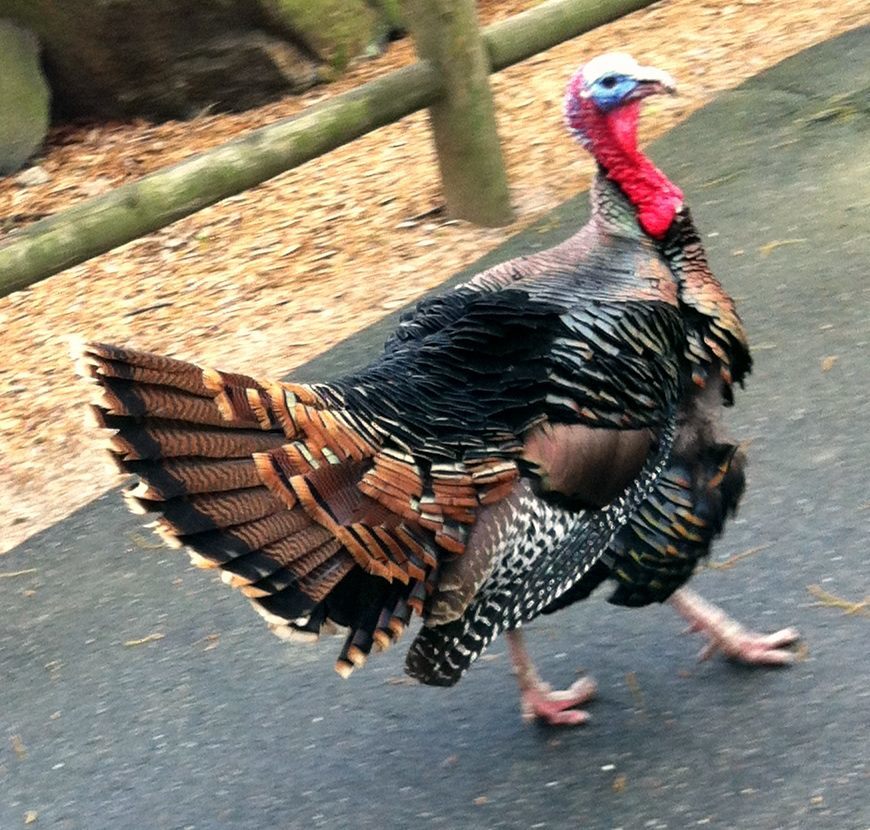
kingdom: Animalia
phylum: Chordata
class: Aves
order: Galliformes
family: Phasianidae
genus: Meleagris
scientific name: Meleagris gallopavo
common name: Wild turkey
